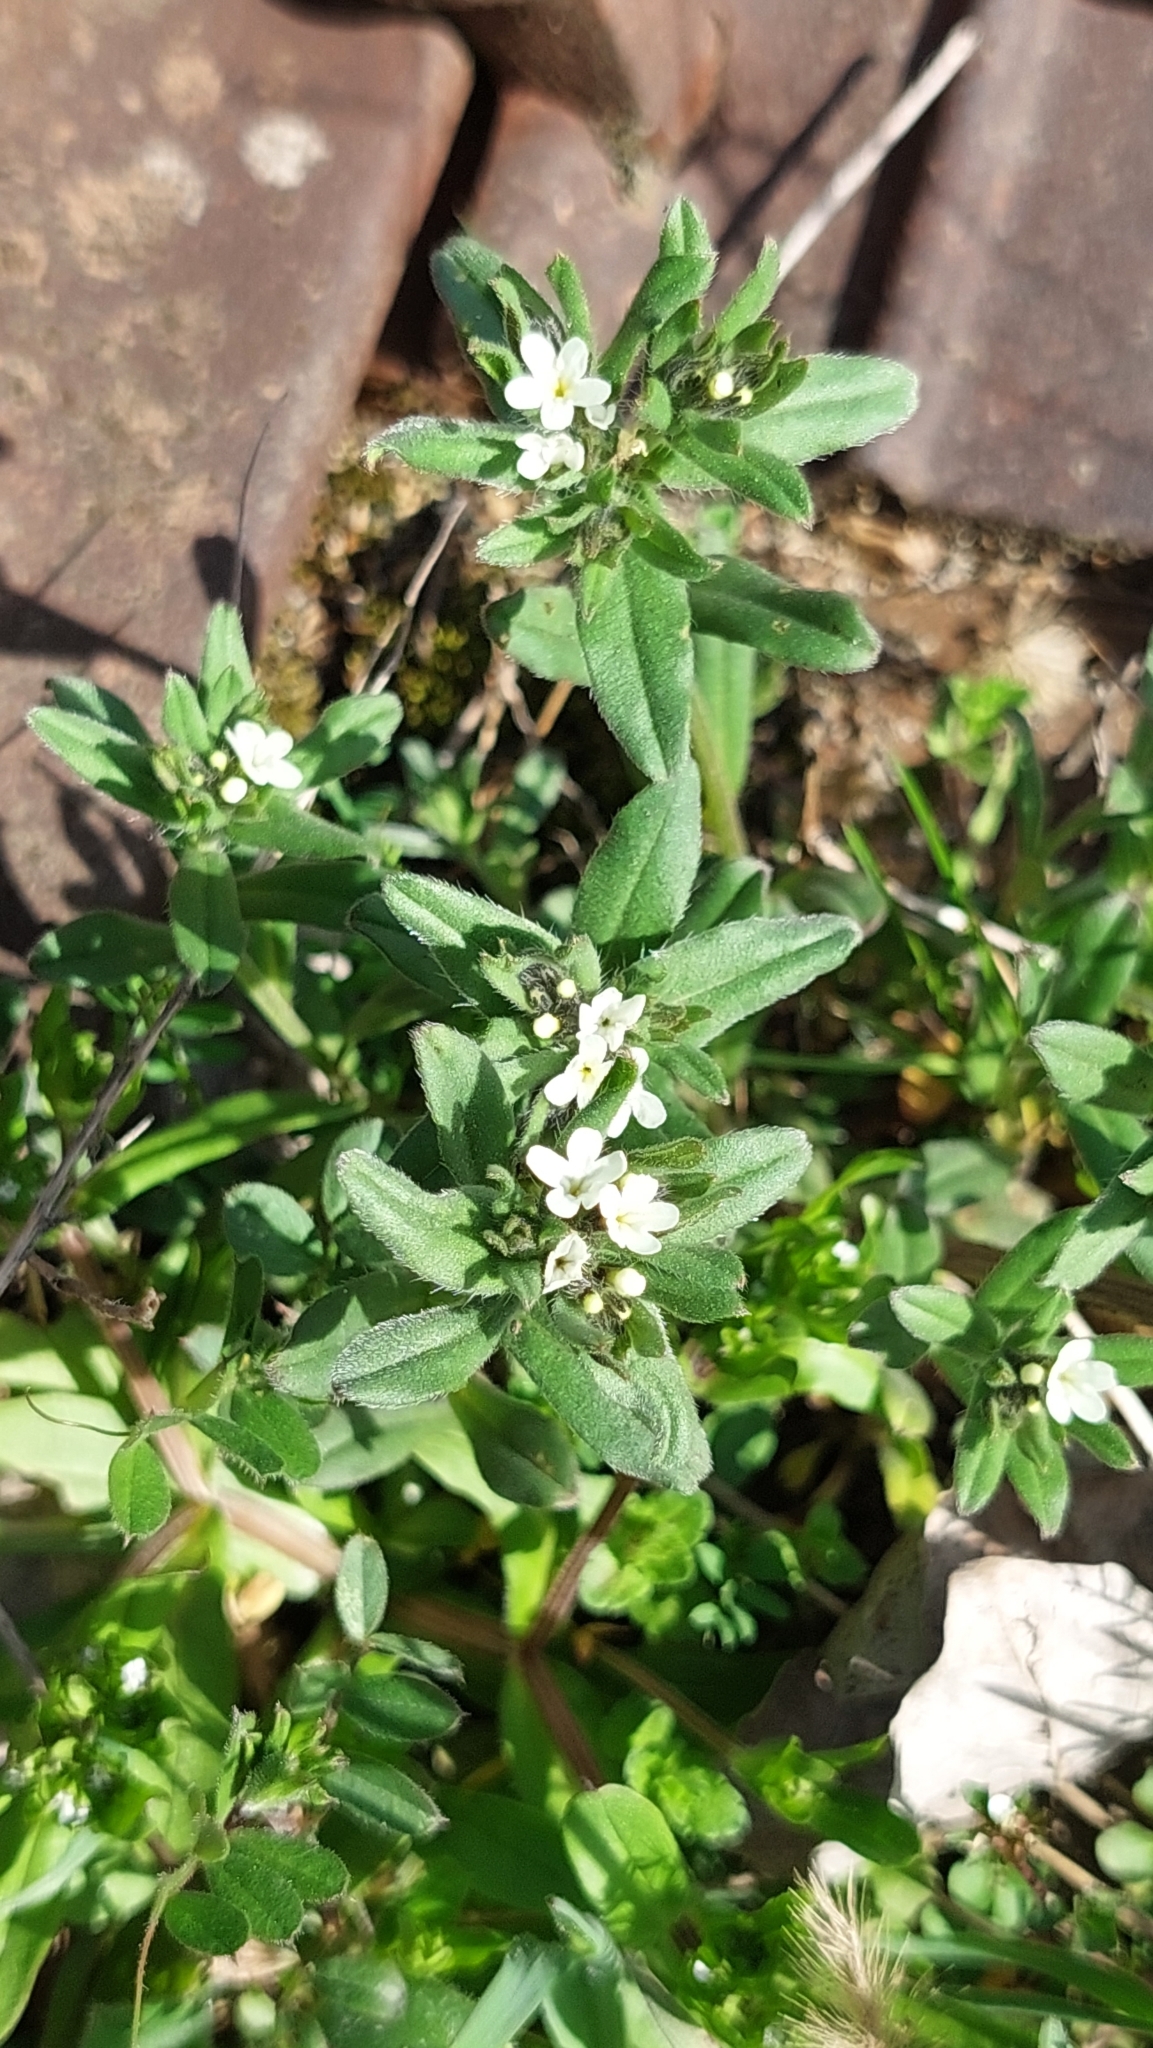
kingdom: Plantae
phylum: Tracheophyta
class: Magnoliopsida
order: Boraginales
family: Boraginaceae
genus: Buglossoides
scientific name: Buglossoides arvensis
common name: Corn gromwell
